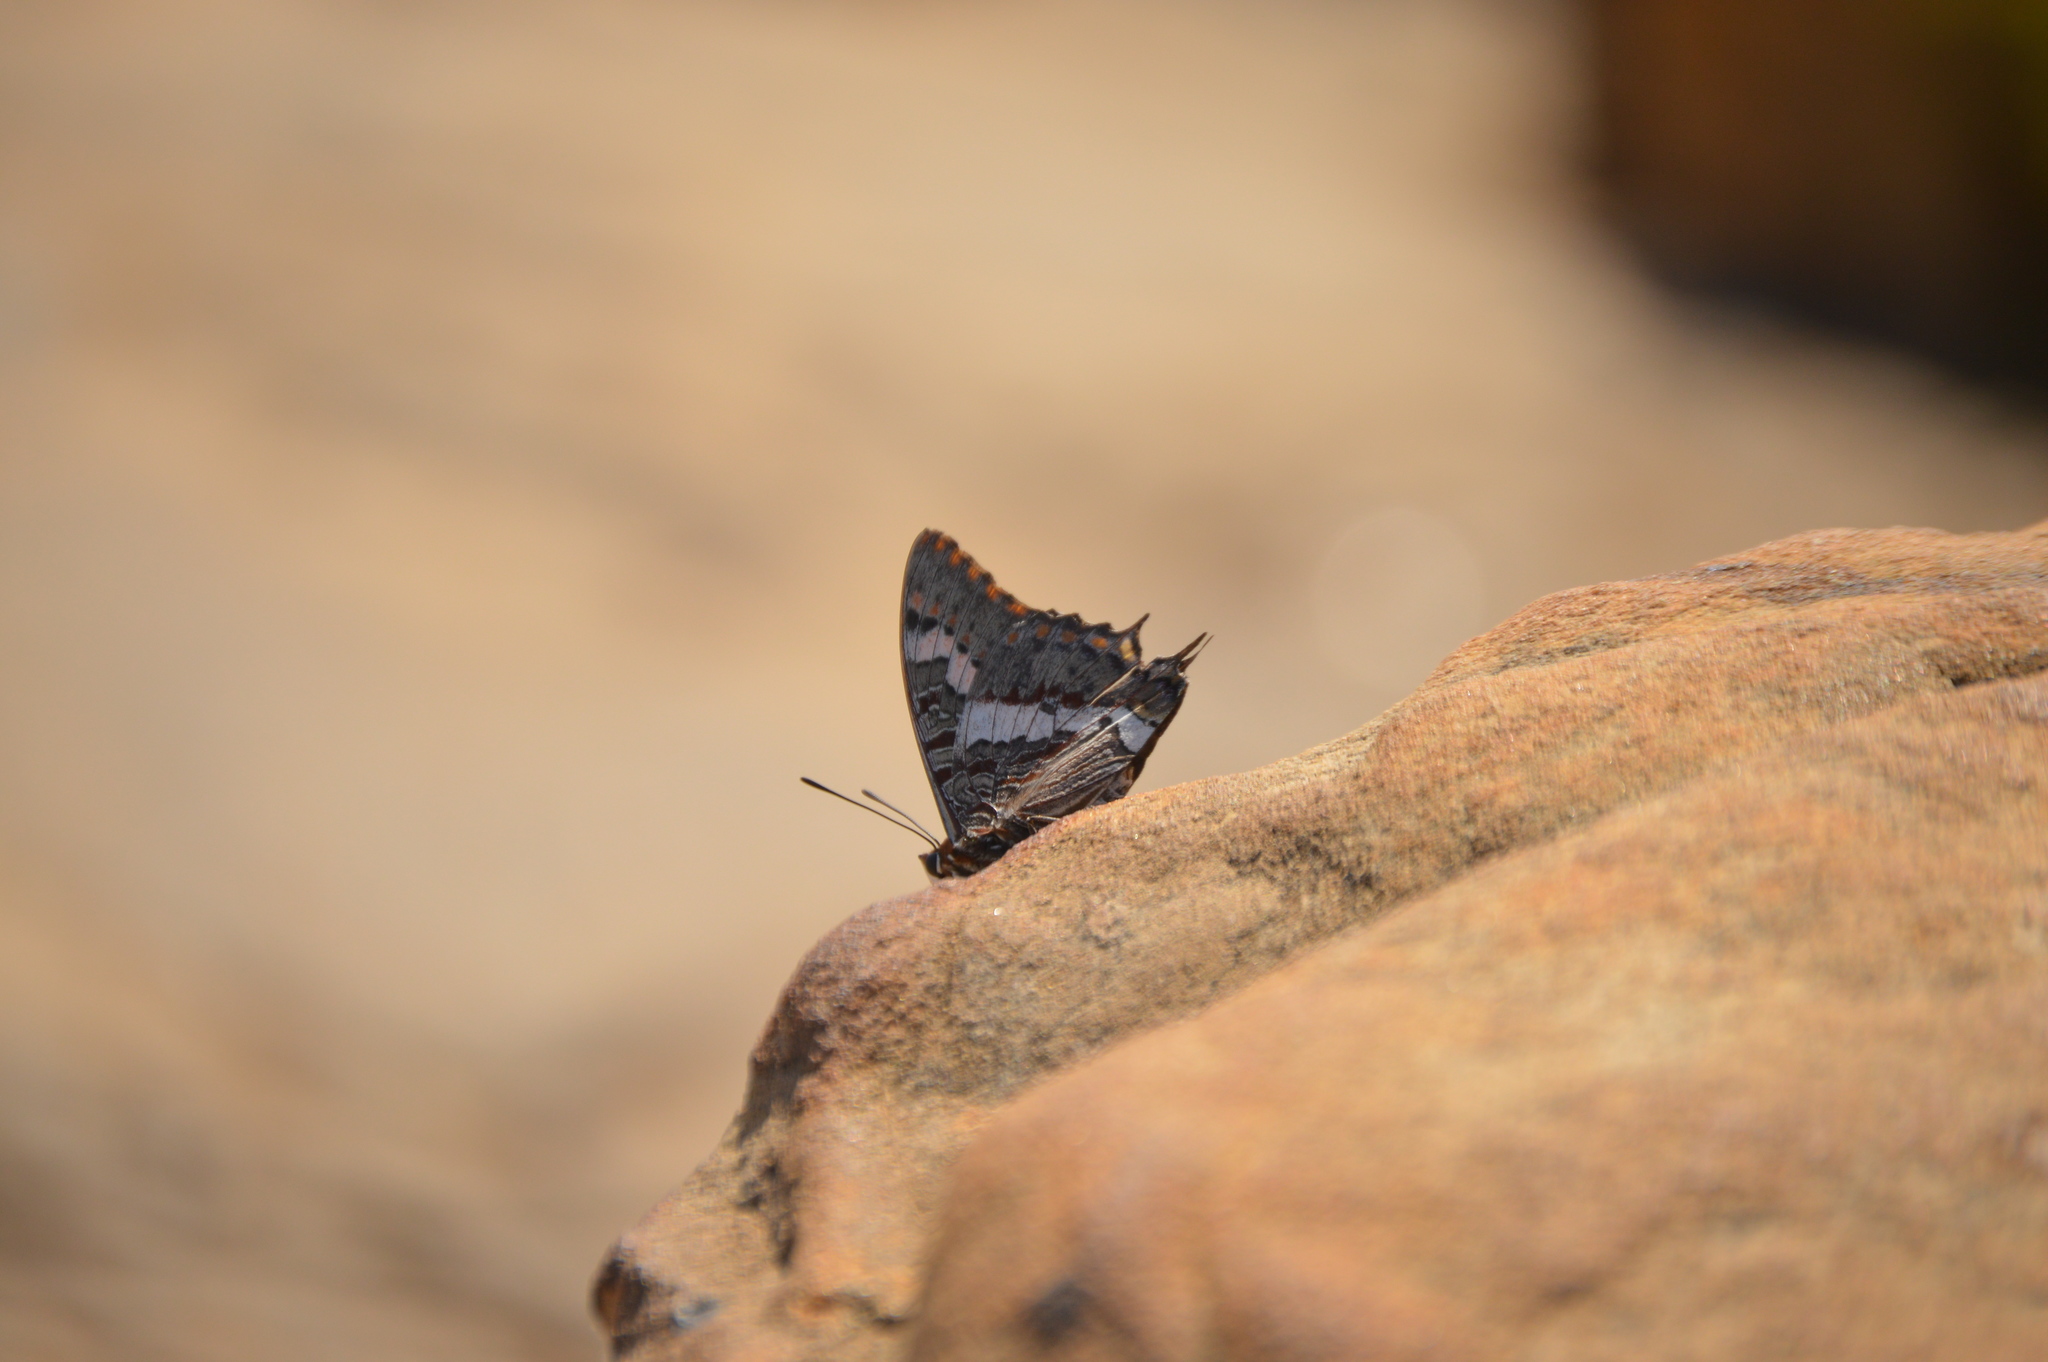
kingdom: Animalia
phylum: Arthropoda
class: Insecta
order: Lepidoptera
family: Nymphalidae
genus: Charaxes
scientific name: Charaxes pelias
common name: Protea charaxes
